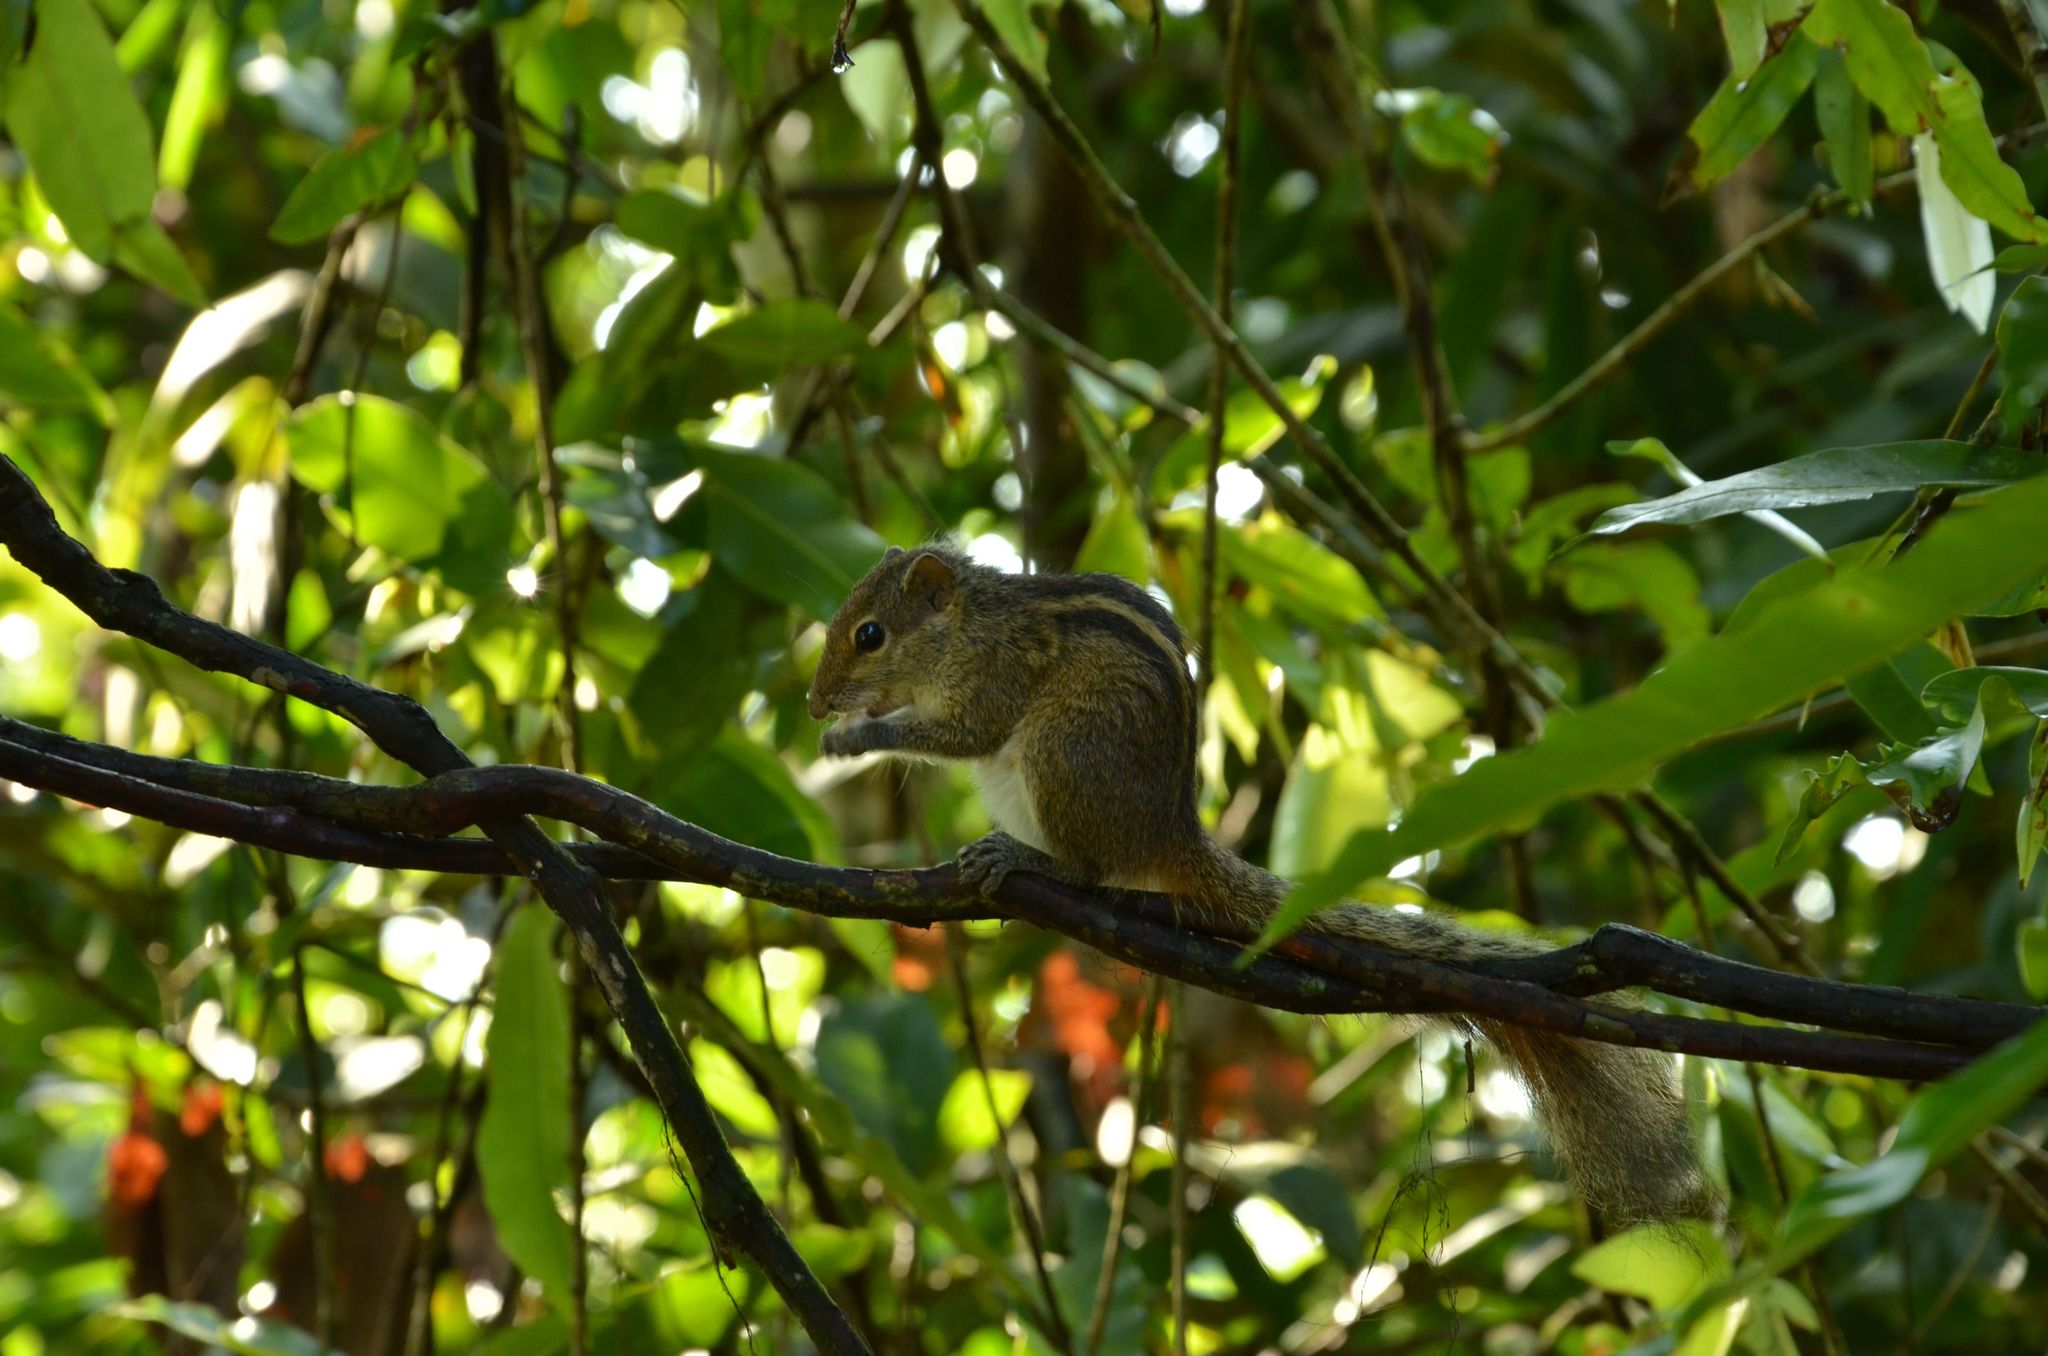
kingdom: Animalia
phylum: Chordata
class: Mammalia
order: Rodentia
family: Sciuridae
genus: Funambulus
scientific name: Funambulus palmarum
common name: Indian palm squirrel
